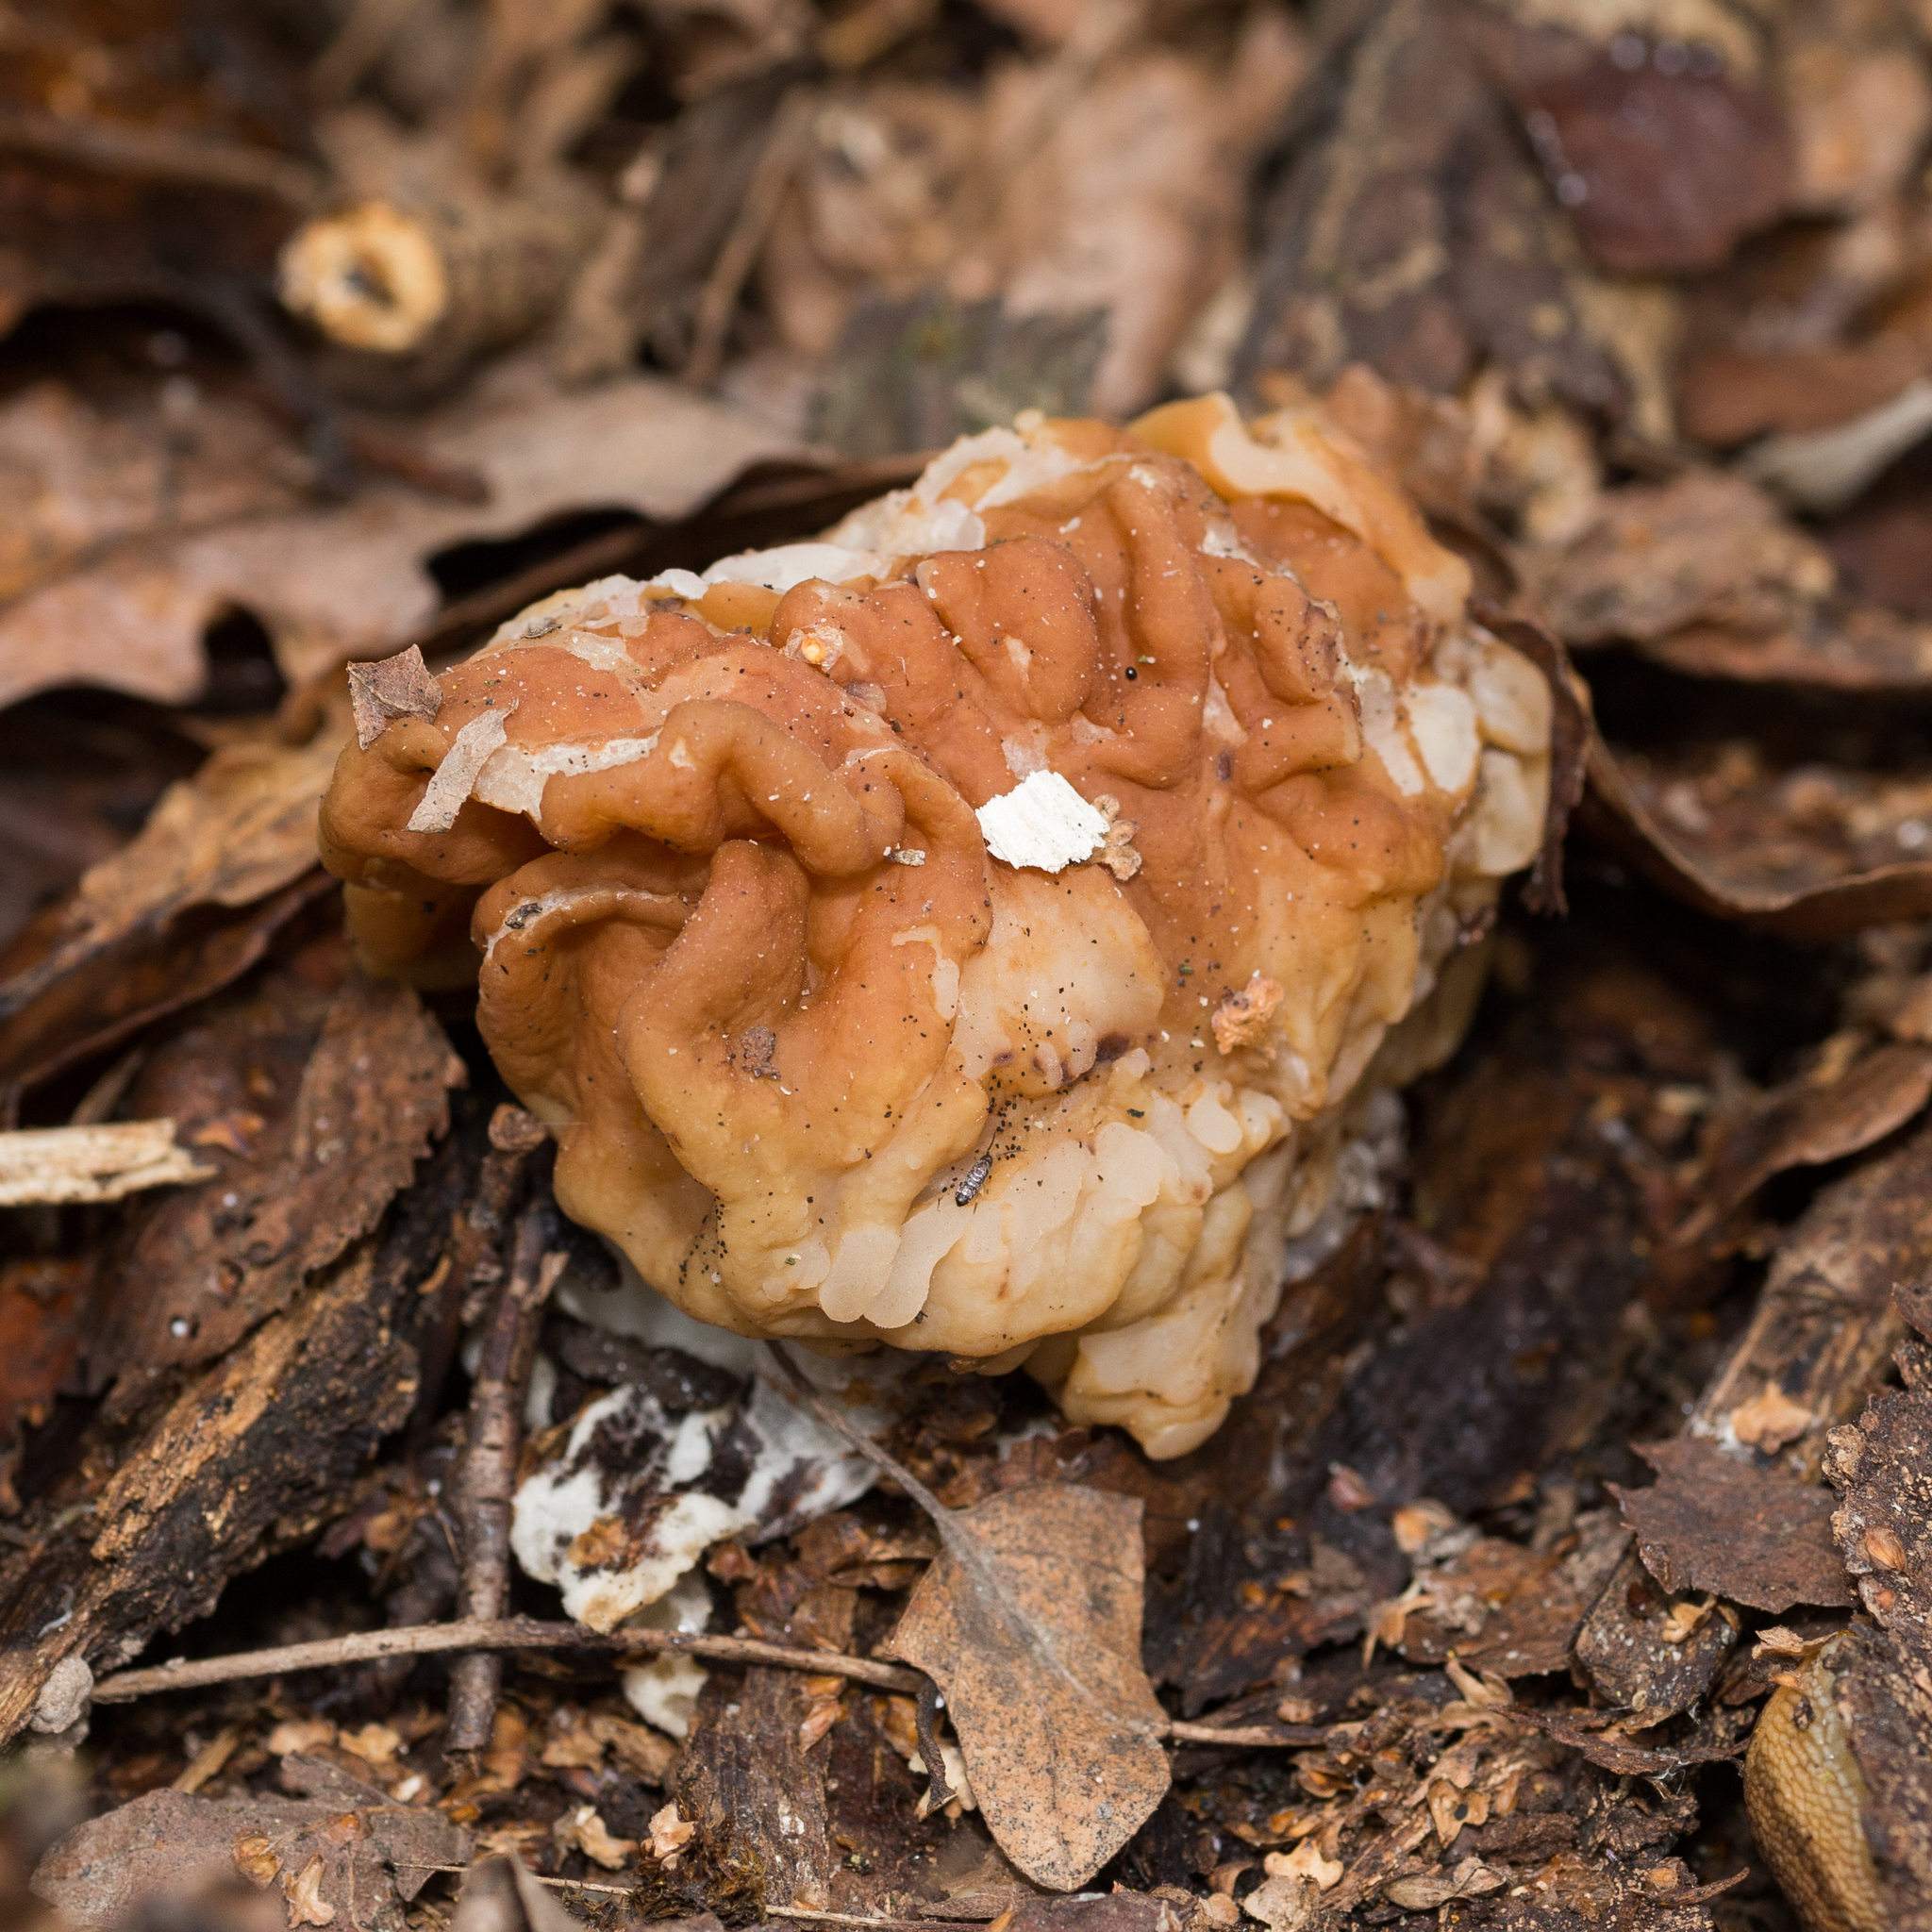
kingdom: Fungi
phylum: Ascomycota
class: Pezizomycetes
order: Pezizales
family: Discinaceae
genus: Gyromitra
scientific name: Gyromitra gigas
